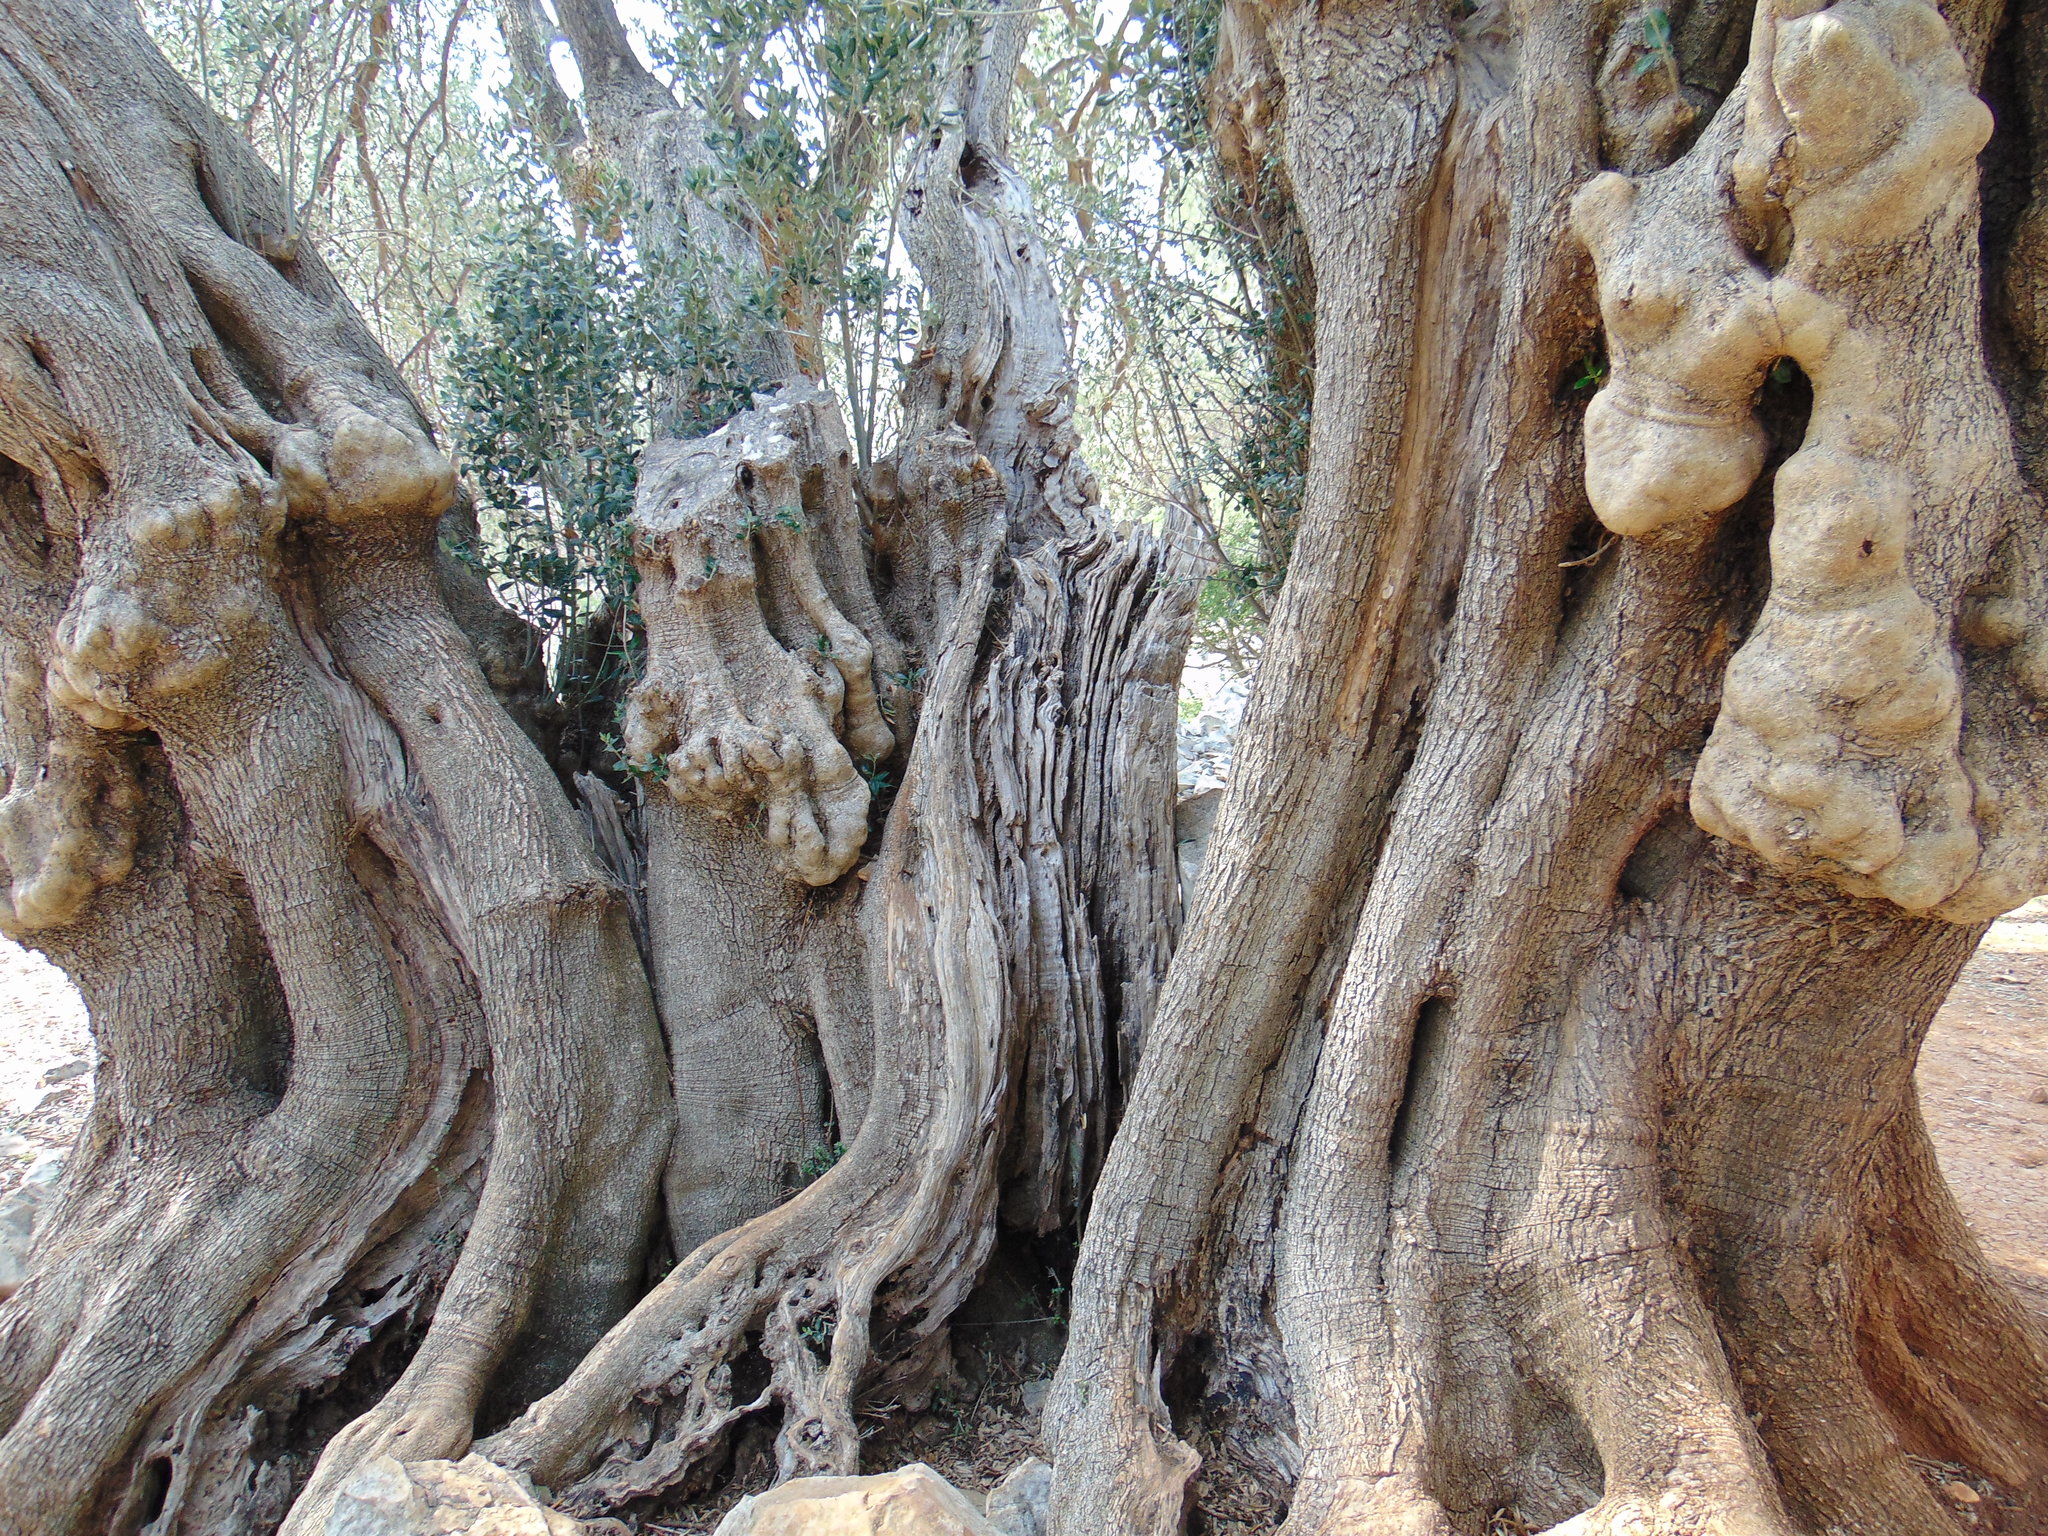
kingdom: Plantae
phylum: Tracheophyta
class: Magnoliopsida
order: Lamiales
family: Oleaceae
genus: Olea
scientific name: Olea europaea
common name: Olive
